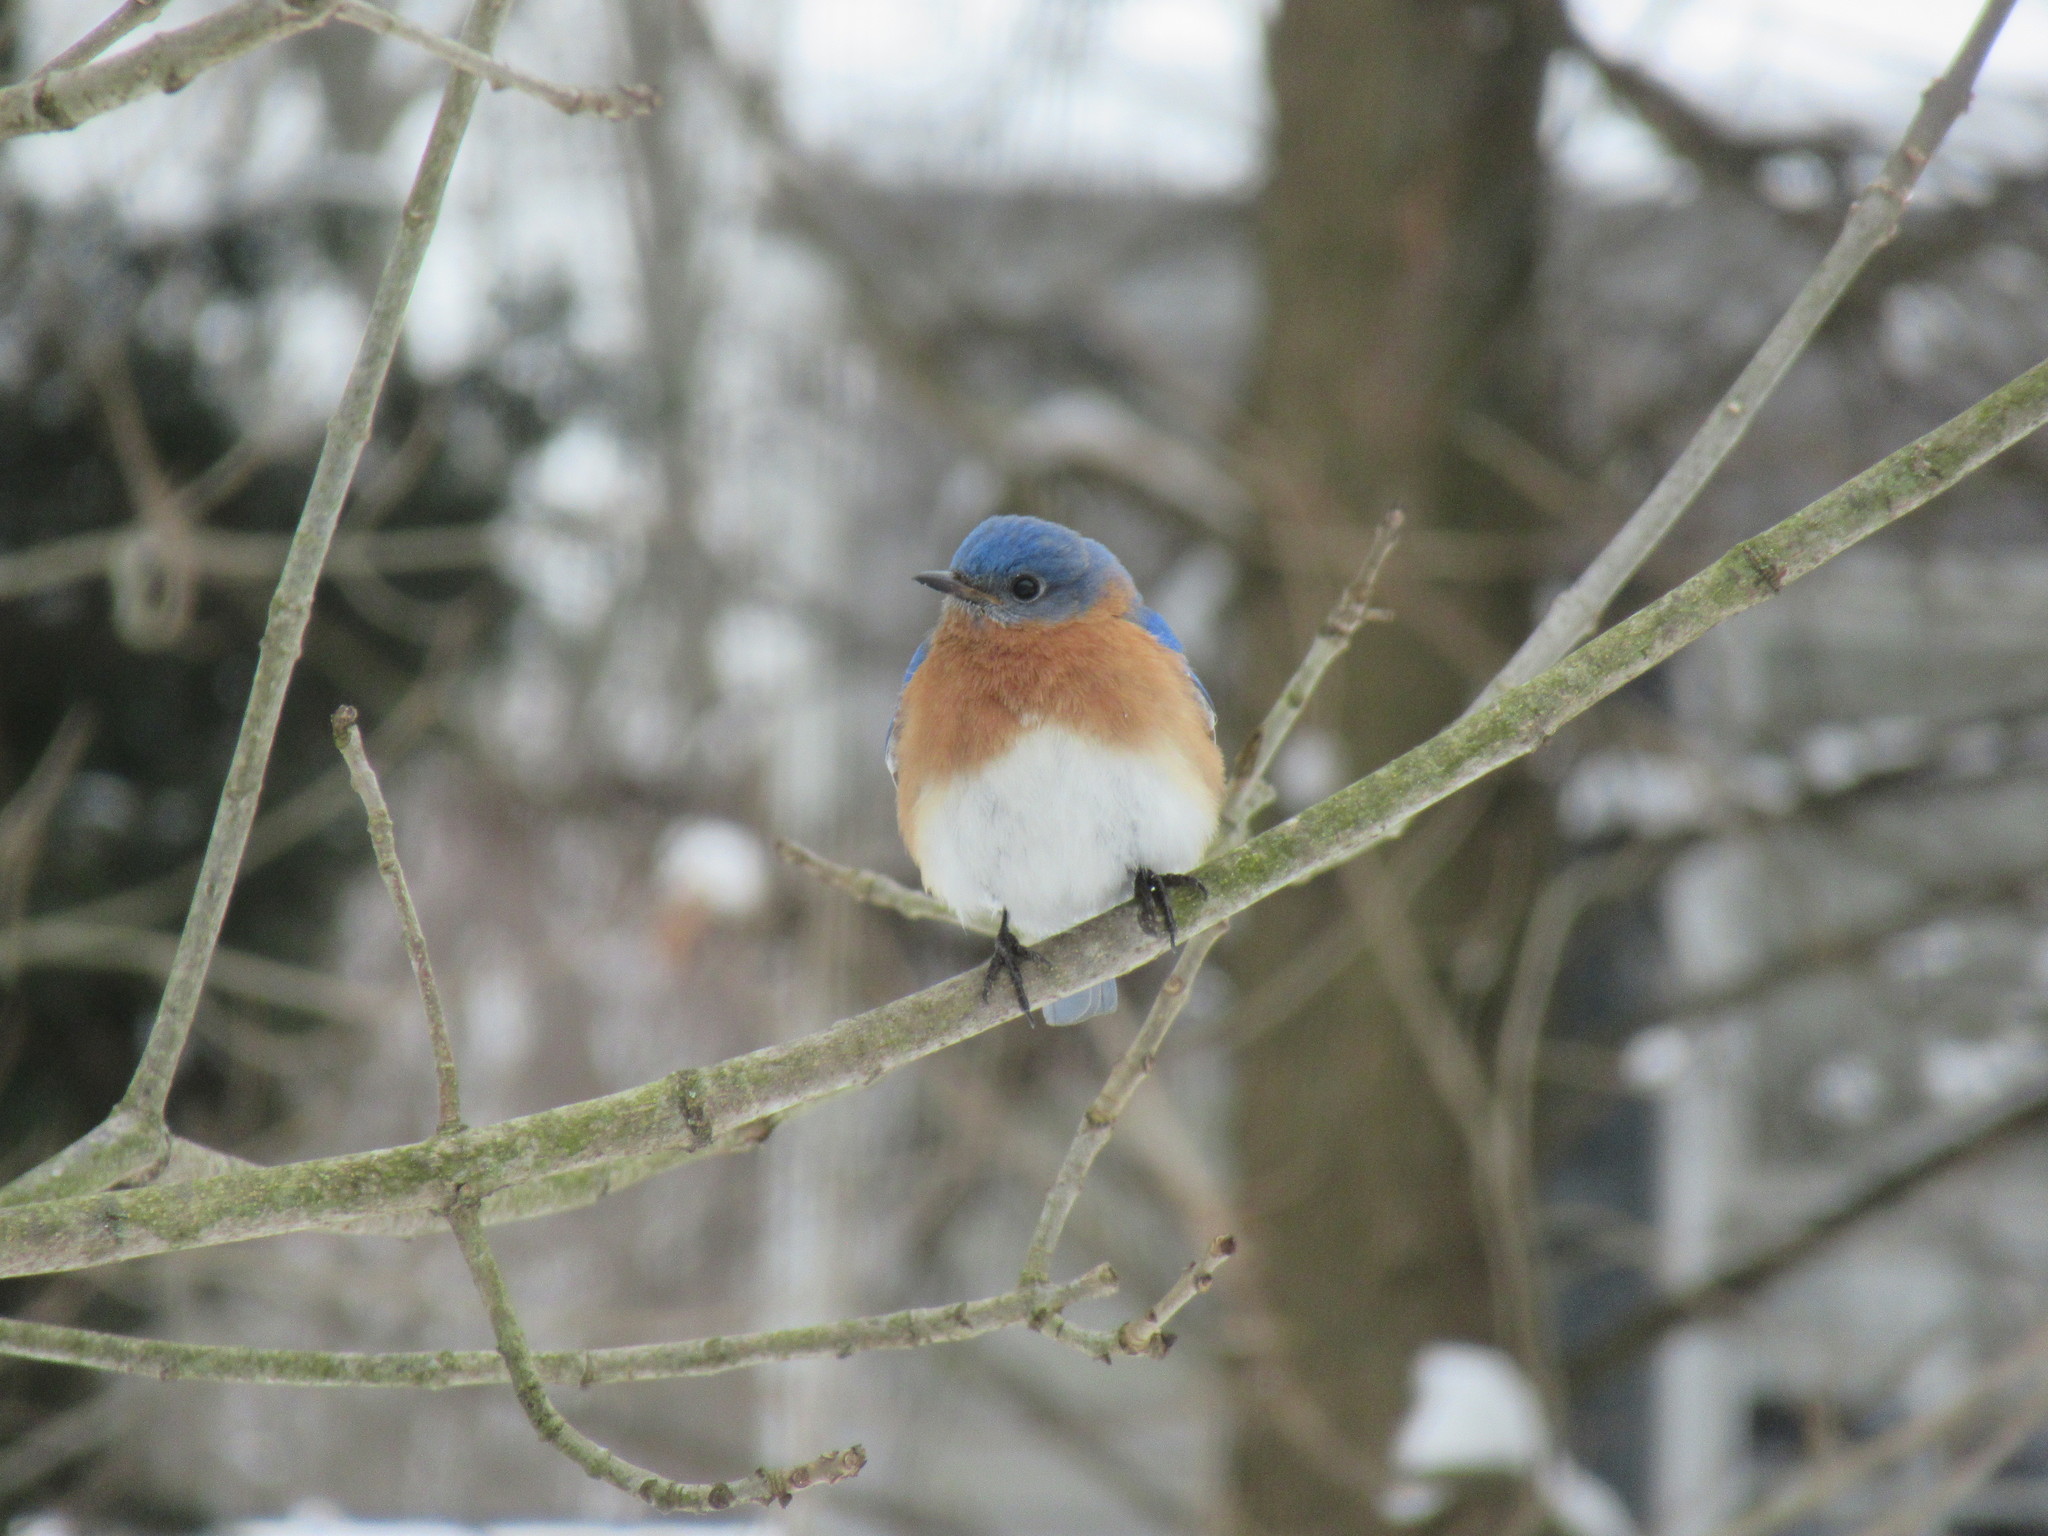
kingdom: Animalia
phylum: Chordata
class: Aves
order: Passeriformes
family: Turdidae
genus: Sialia
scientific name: Sialia sialis
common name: Eastern bluebird
